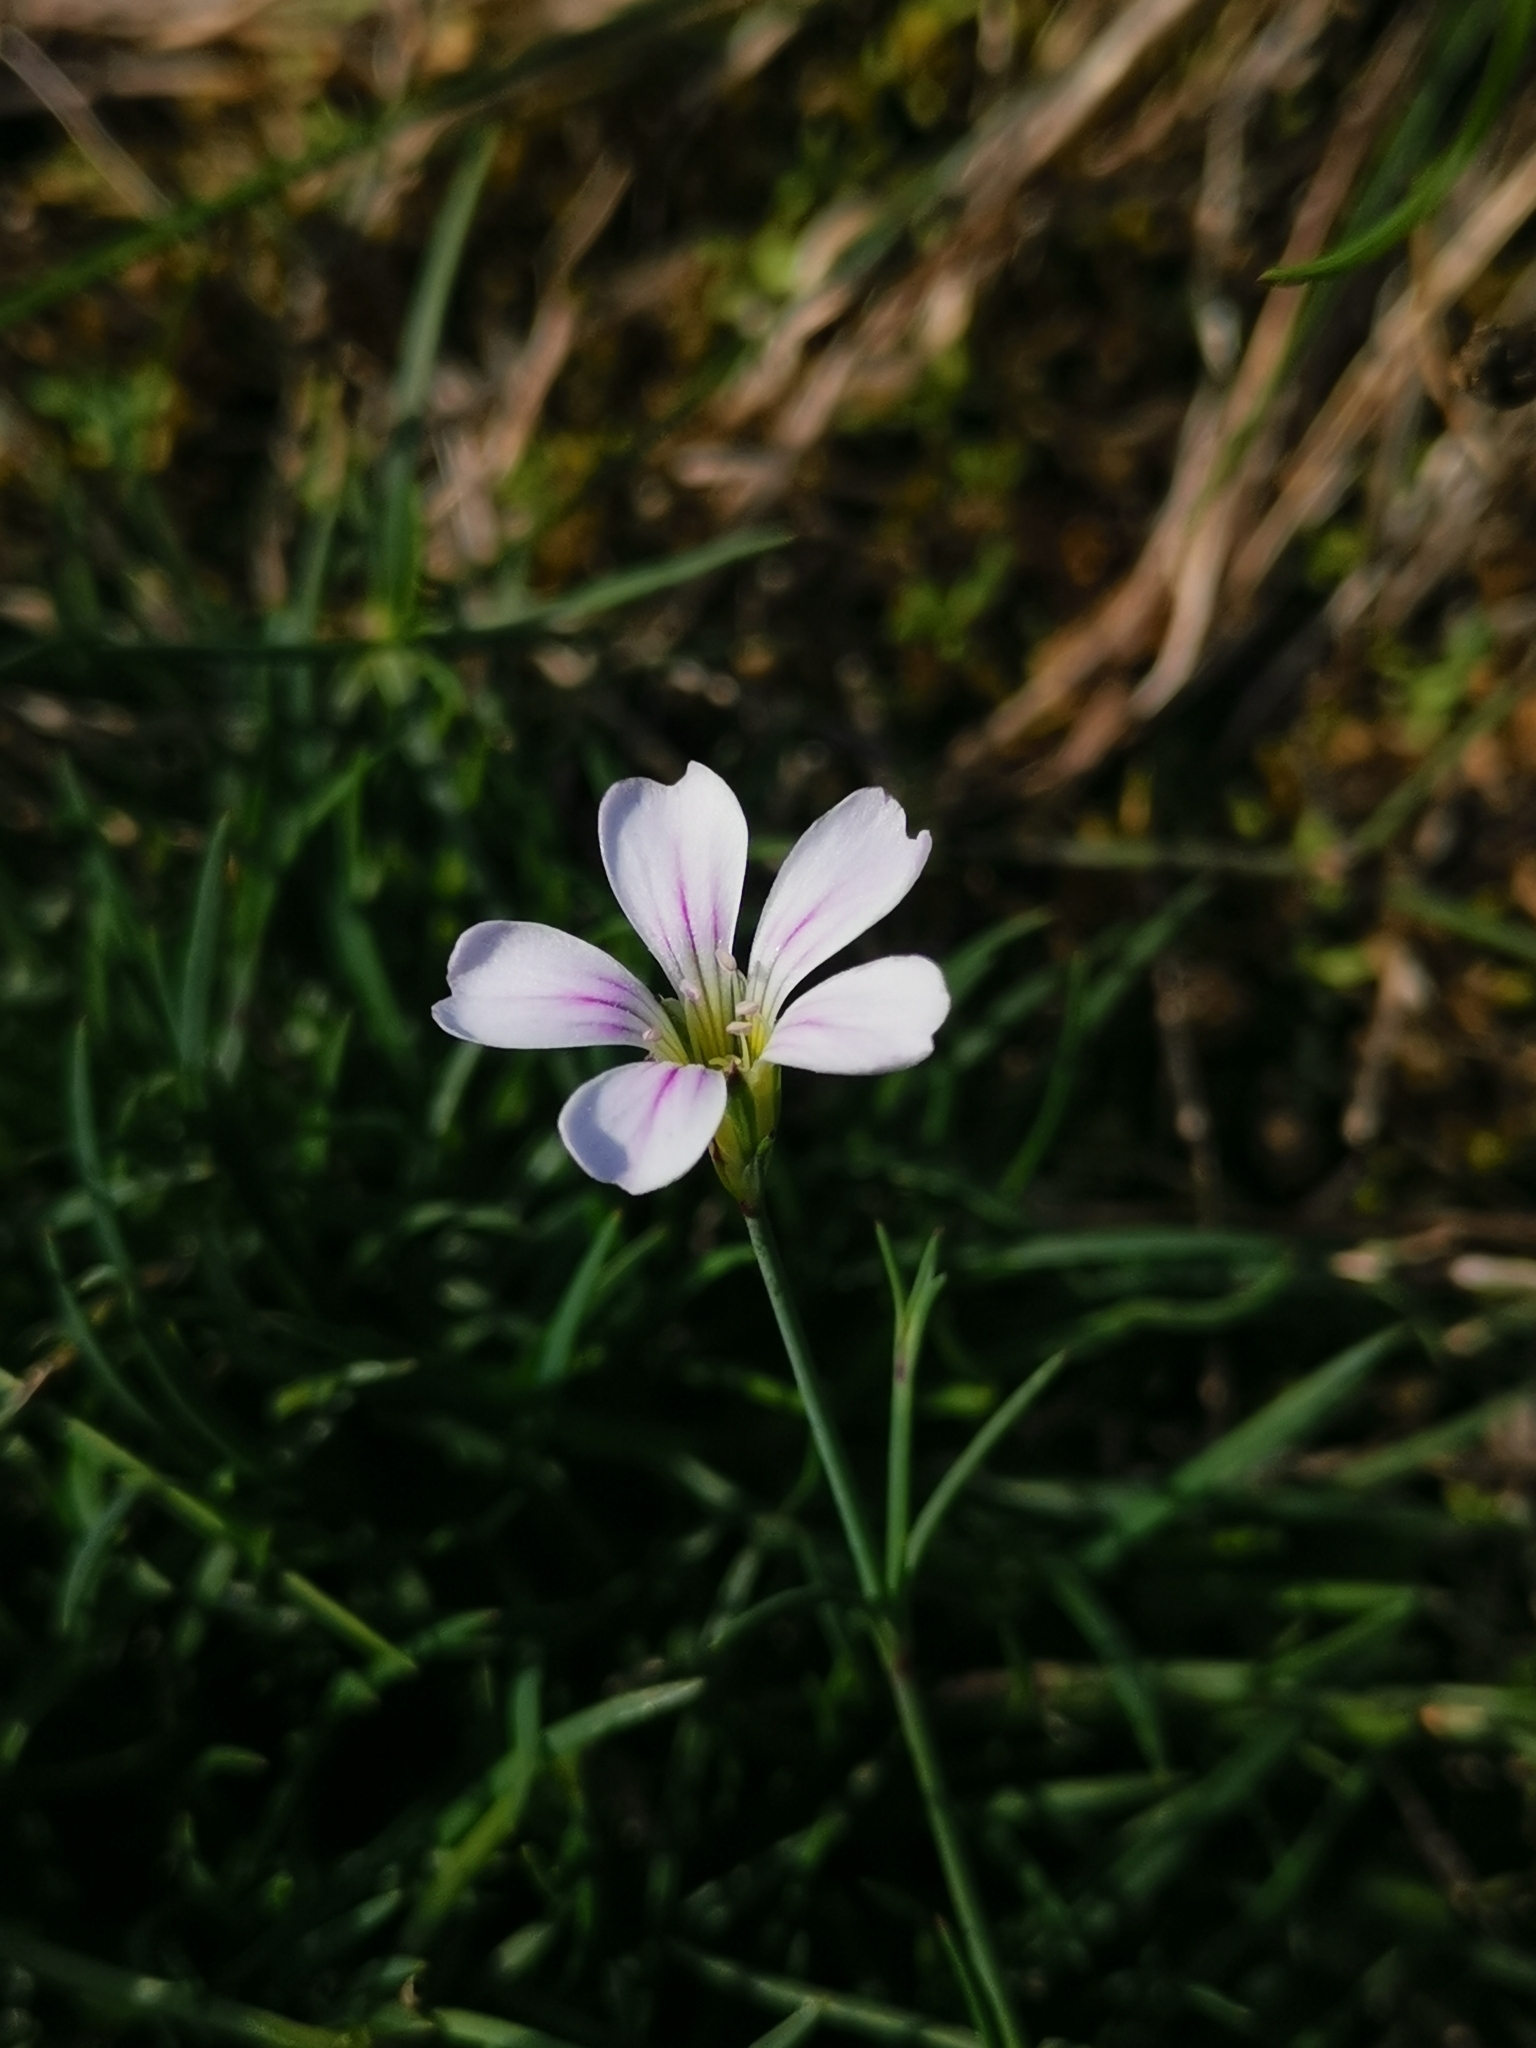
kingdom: Plantae
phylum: Tracheophyta
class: Magnoliopsida
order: Caryophyllales
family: Caryophyllaceae
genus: Petrorhagia
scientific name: Petrorhagia saxifraga
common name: Tunicflower
